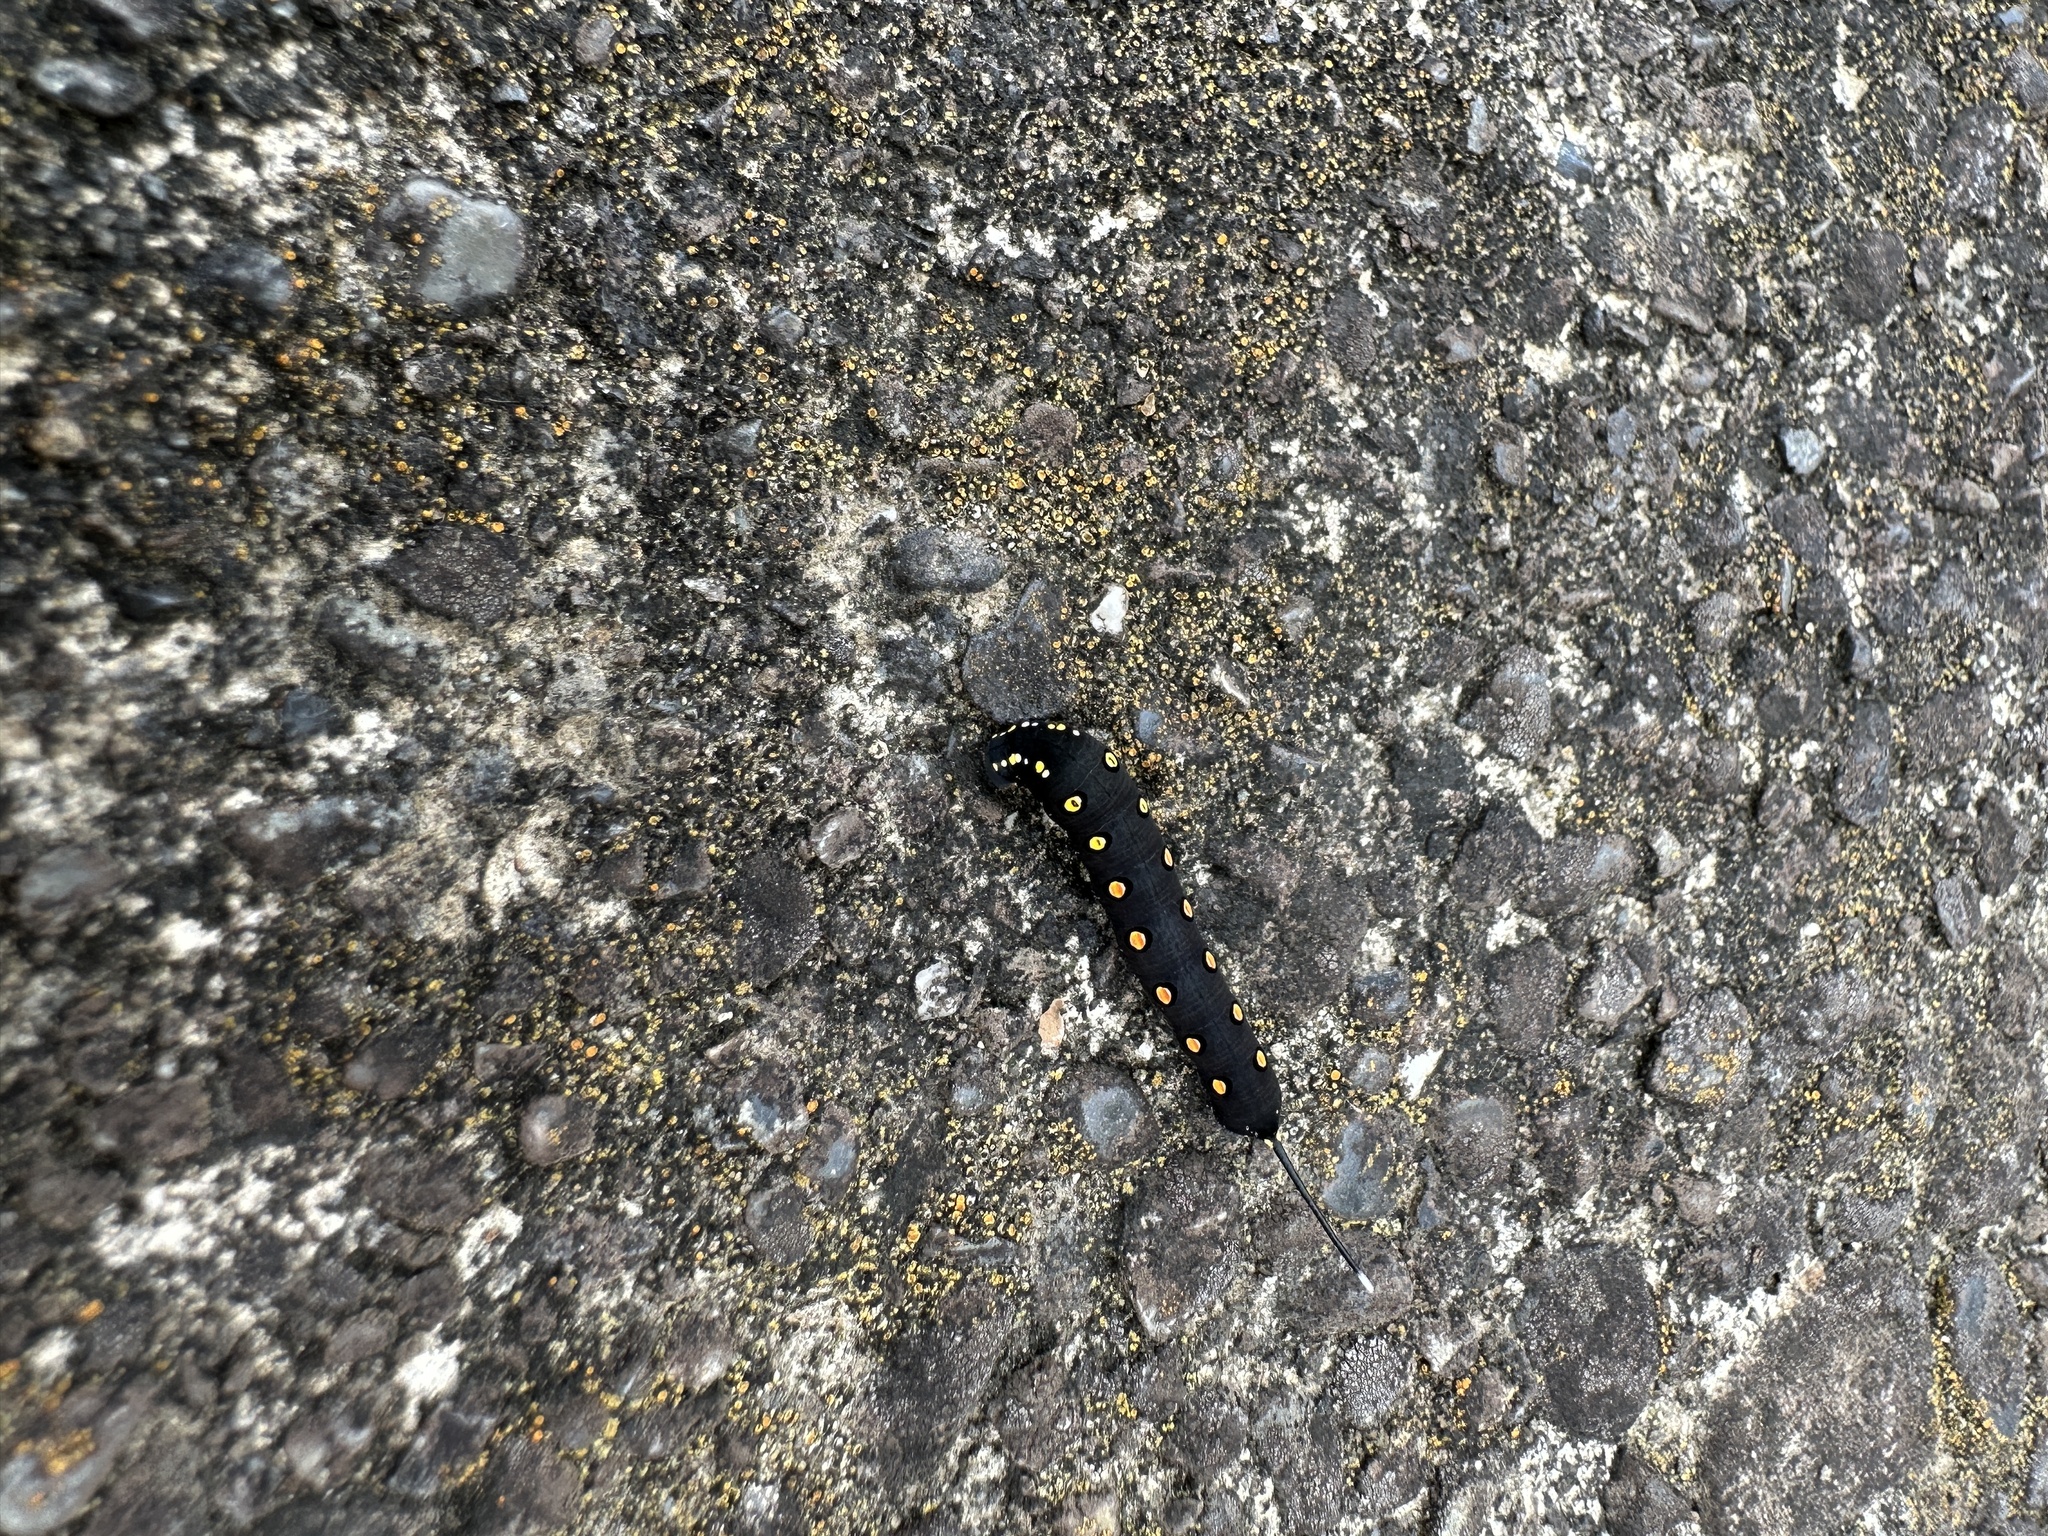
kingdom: Animalia
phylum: Arthropoda
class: Insecta
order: Lepidoptera
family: Sphingidae
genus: Theretra
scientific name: Theretra oldenlandiae
